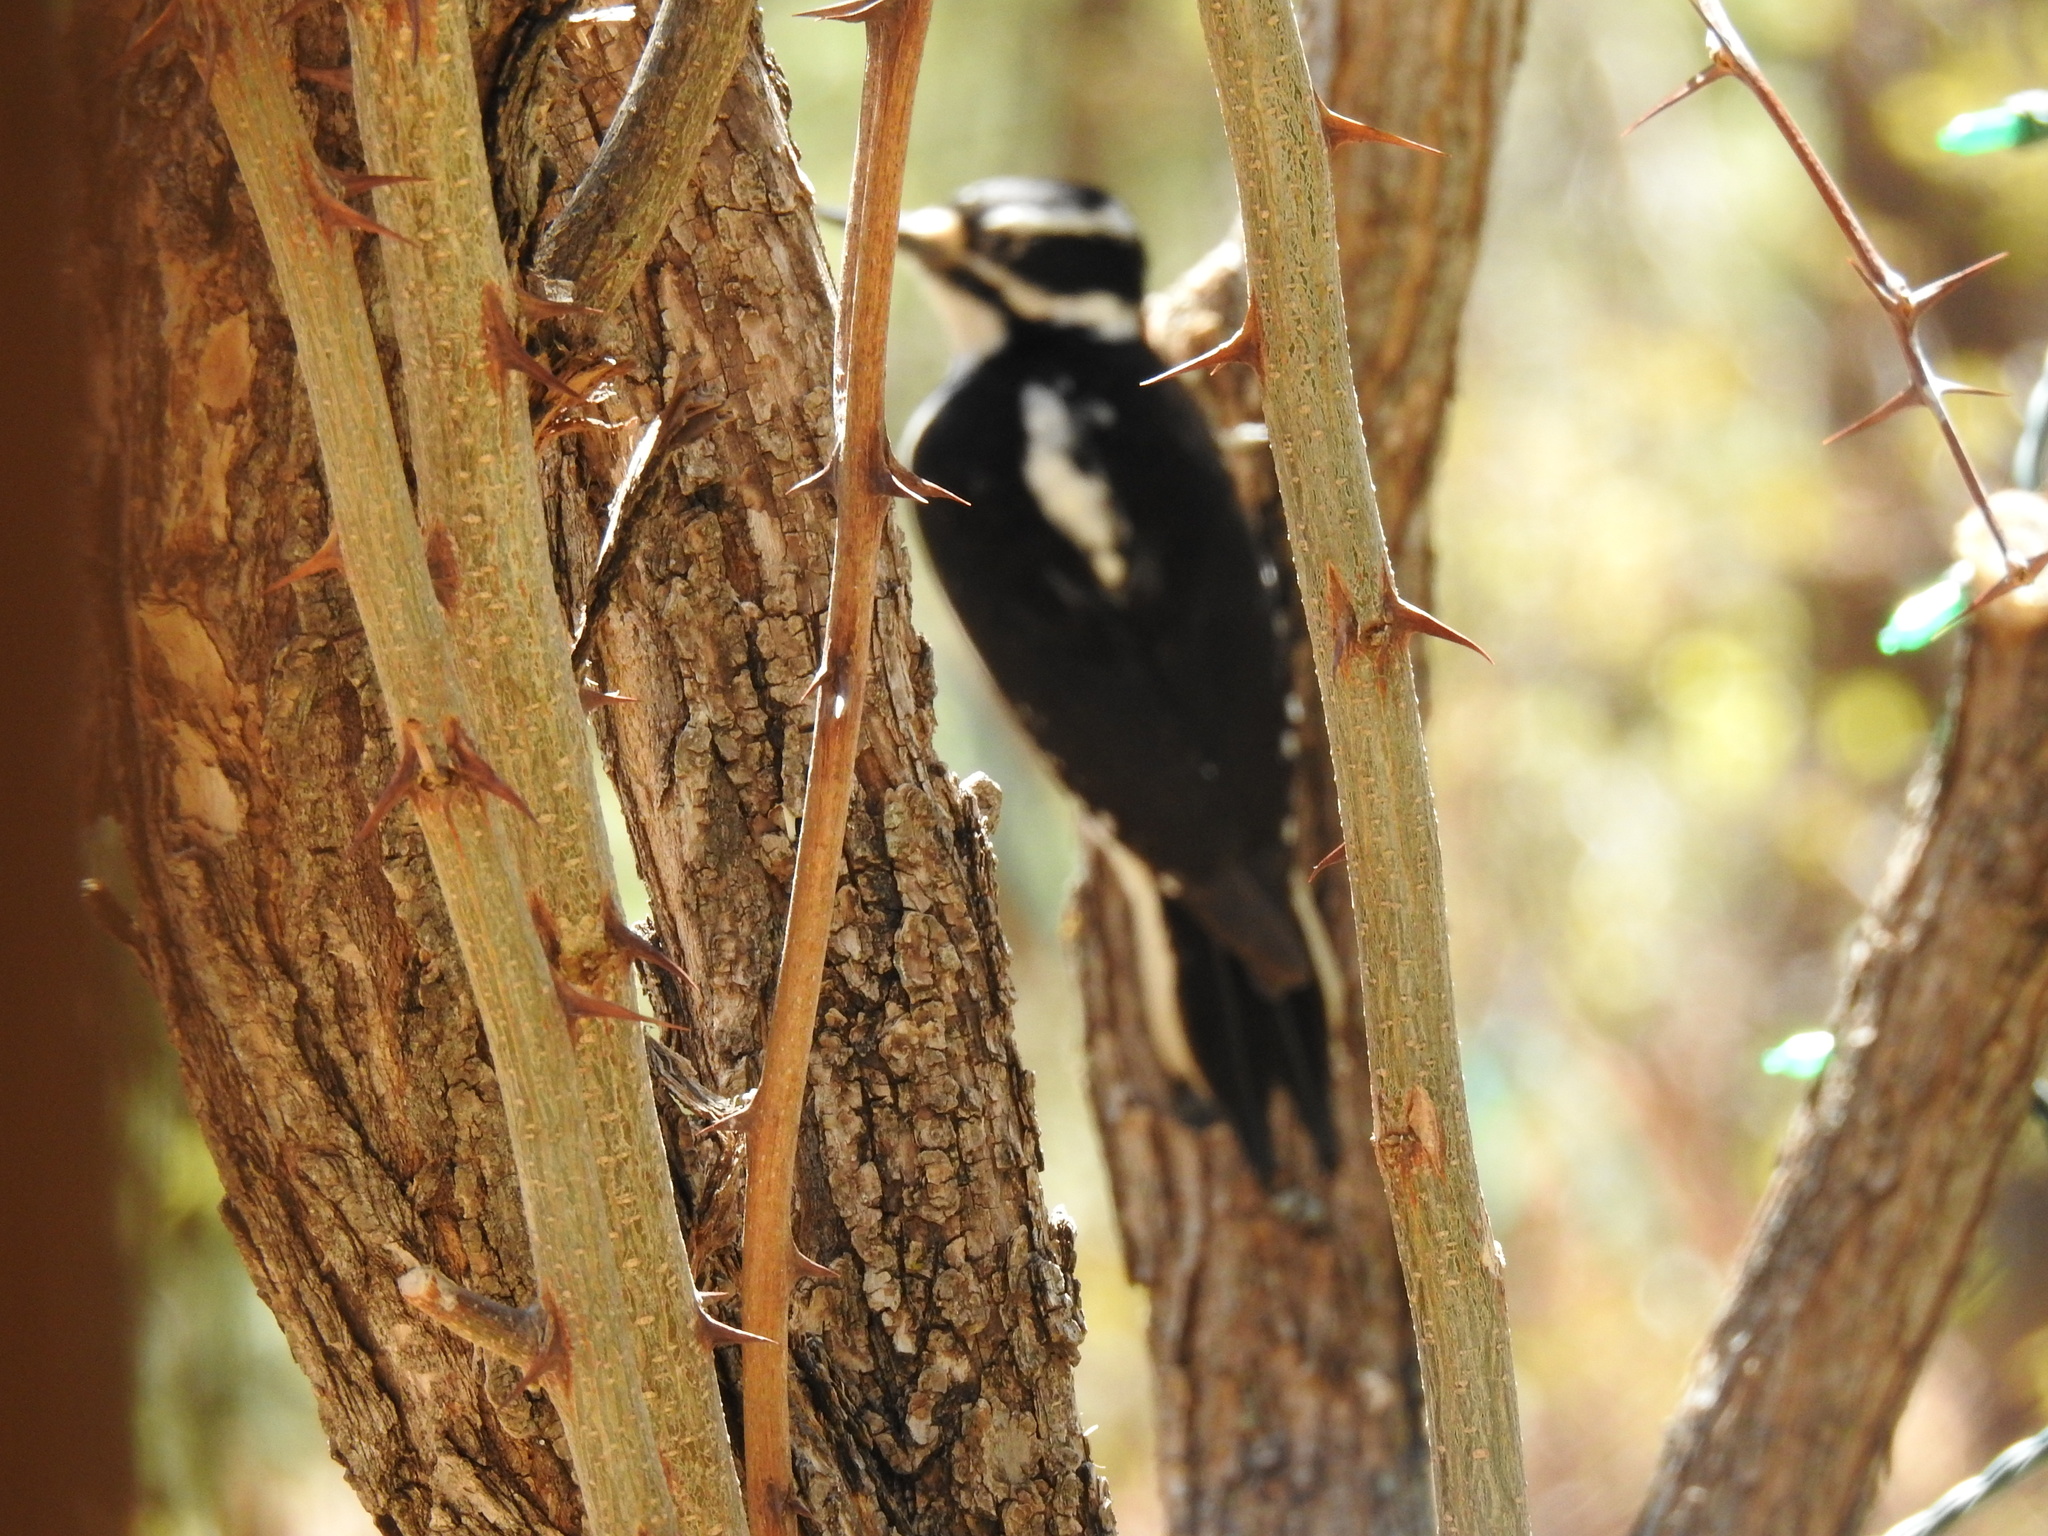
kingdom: Animalia
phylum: Chordata
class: Aves
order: Piciformes
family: Picidae
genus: Leuconotopicus
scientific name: Leuconotopicus villosus
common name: Hairy woodpecker
